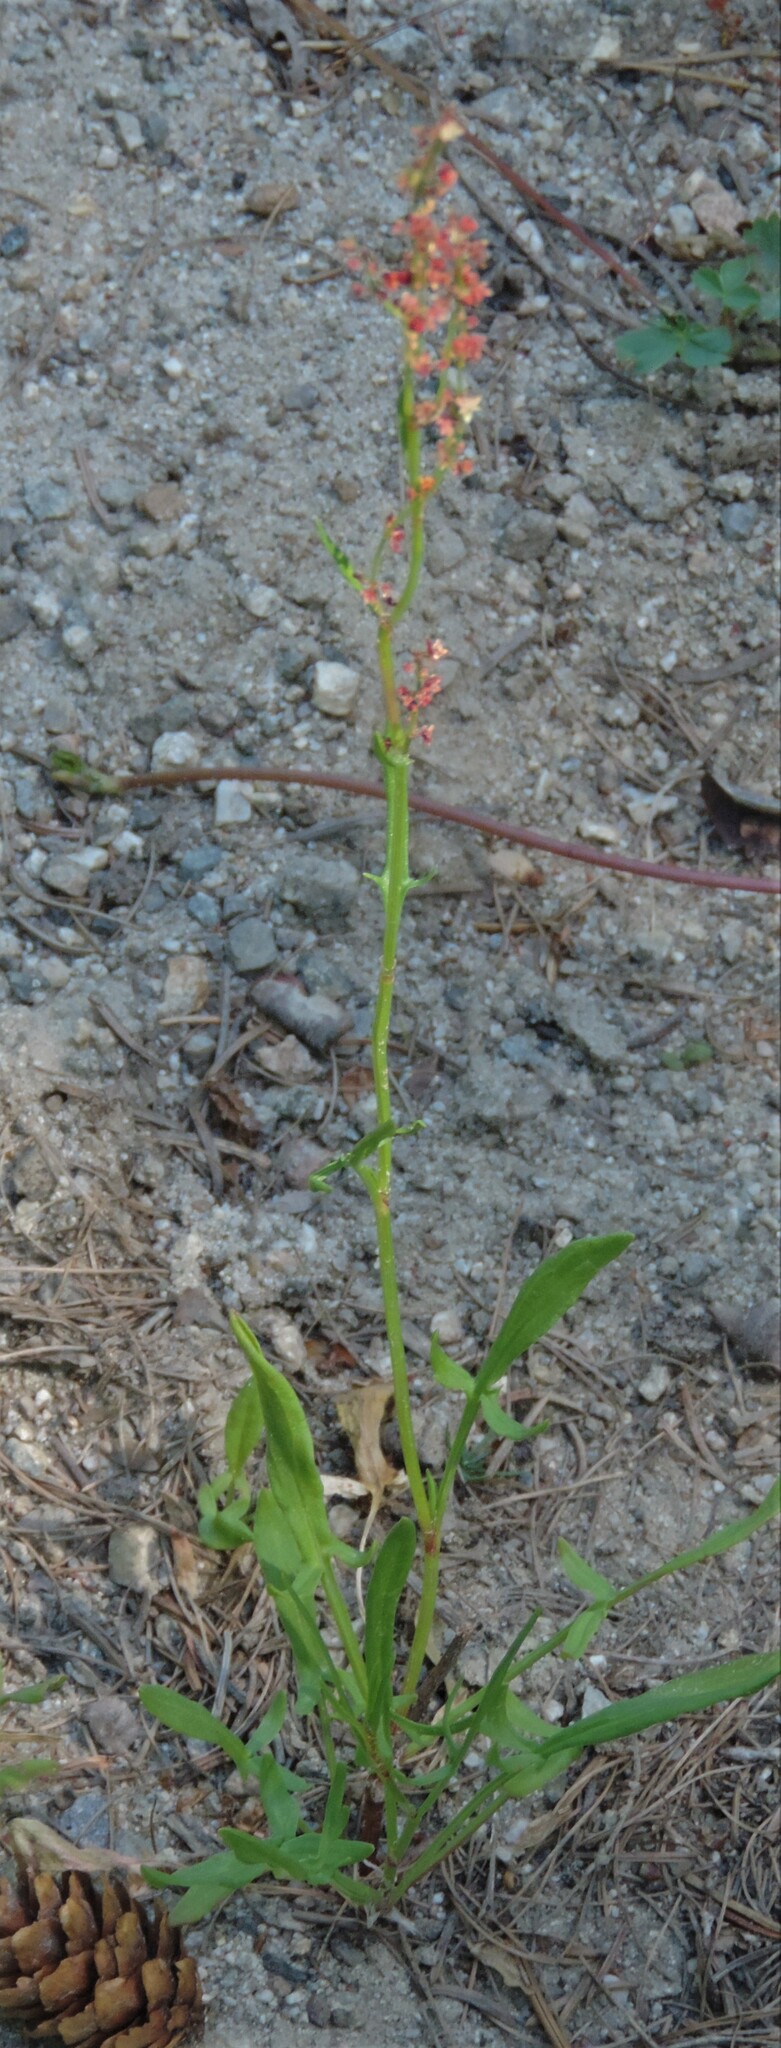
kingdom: Plantae
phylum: Tracheophyta
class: Magnoliopsida
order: Caryophyllales
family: Polygonaceae
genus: Rumex
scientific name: Rumex acetosella
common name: Common sheep sorrel
